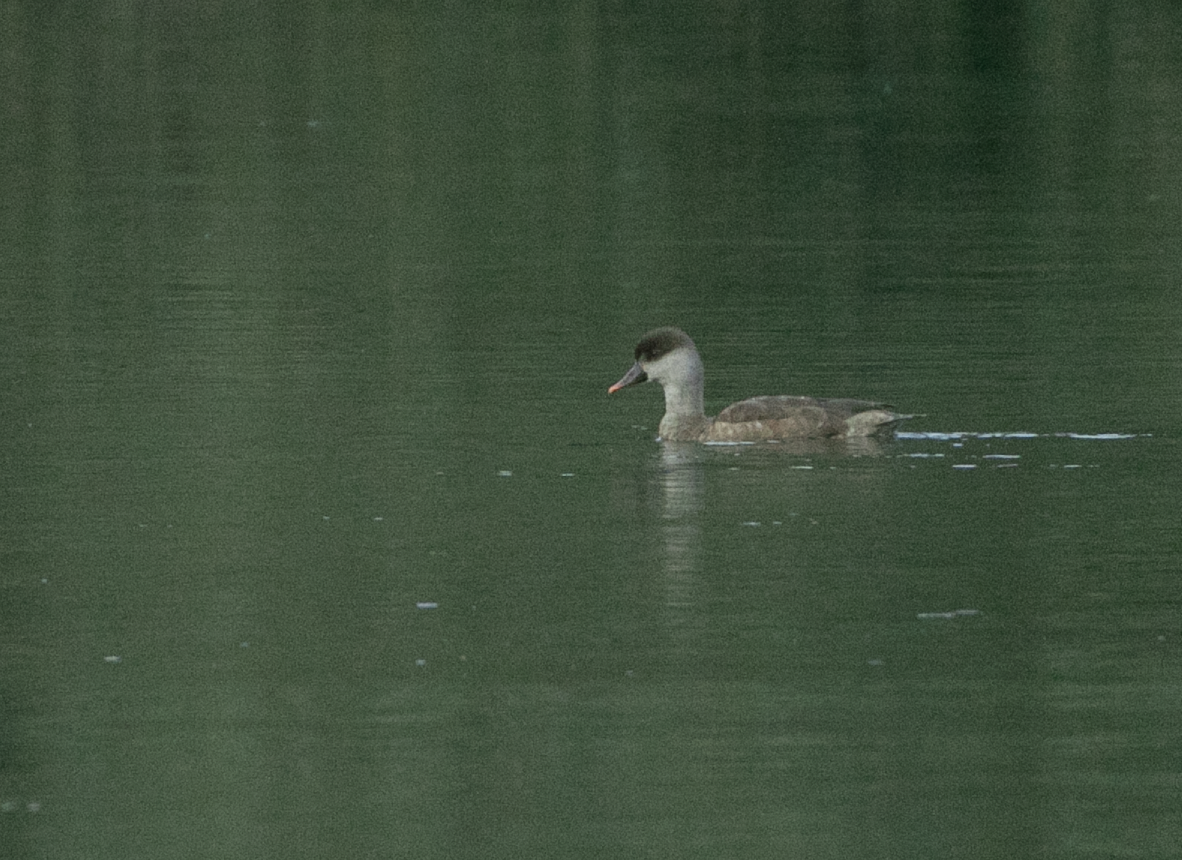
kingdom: Animalia
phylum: Chordata
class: Aves
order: Anseriformes
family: Anatidae
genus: Netta
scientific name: Netta rufina
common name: Red-crested pochard
